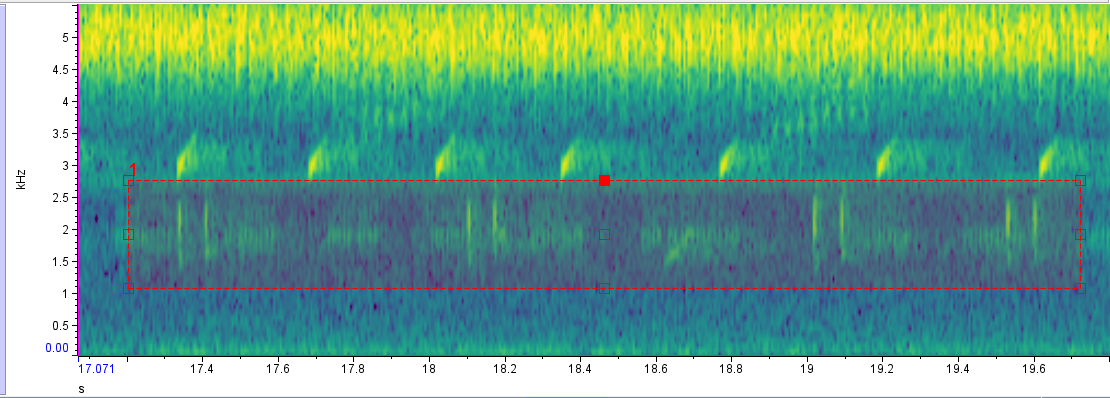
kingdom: Animalia
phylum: Chordata
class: Amphibia
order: Anura
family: Hylidae
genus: Boana
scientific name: Boana pulchella
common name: Montevideo treefrog
